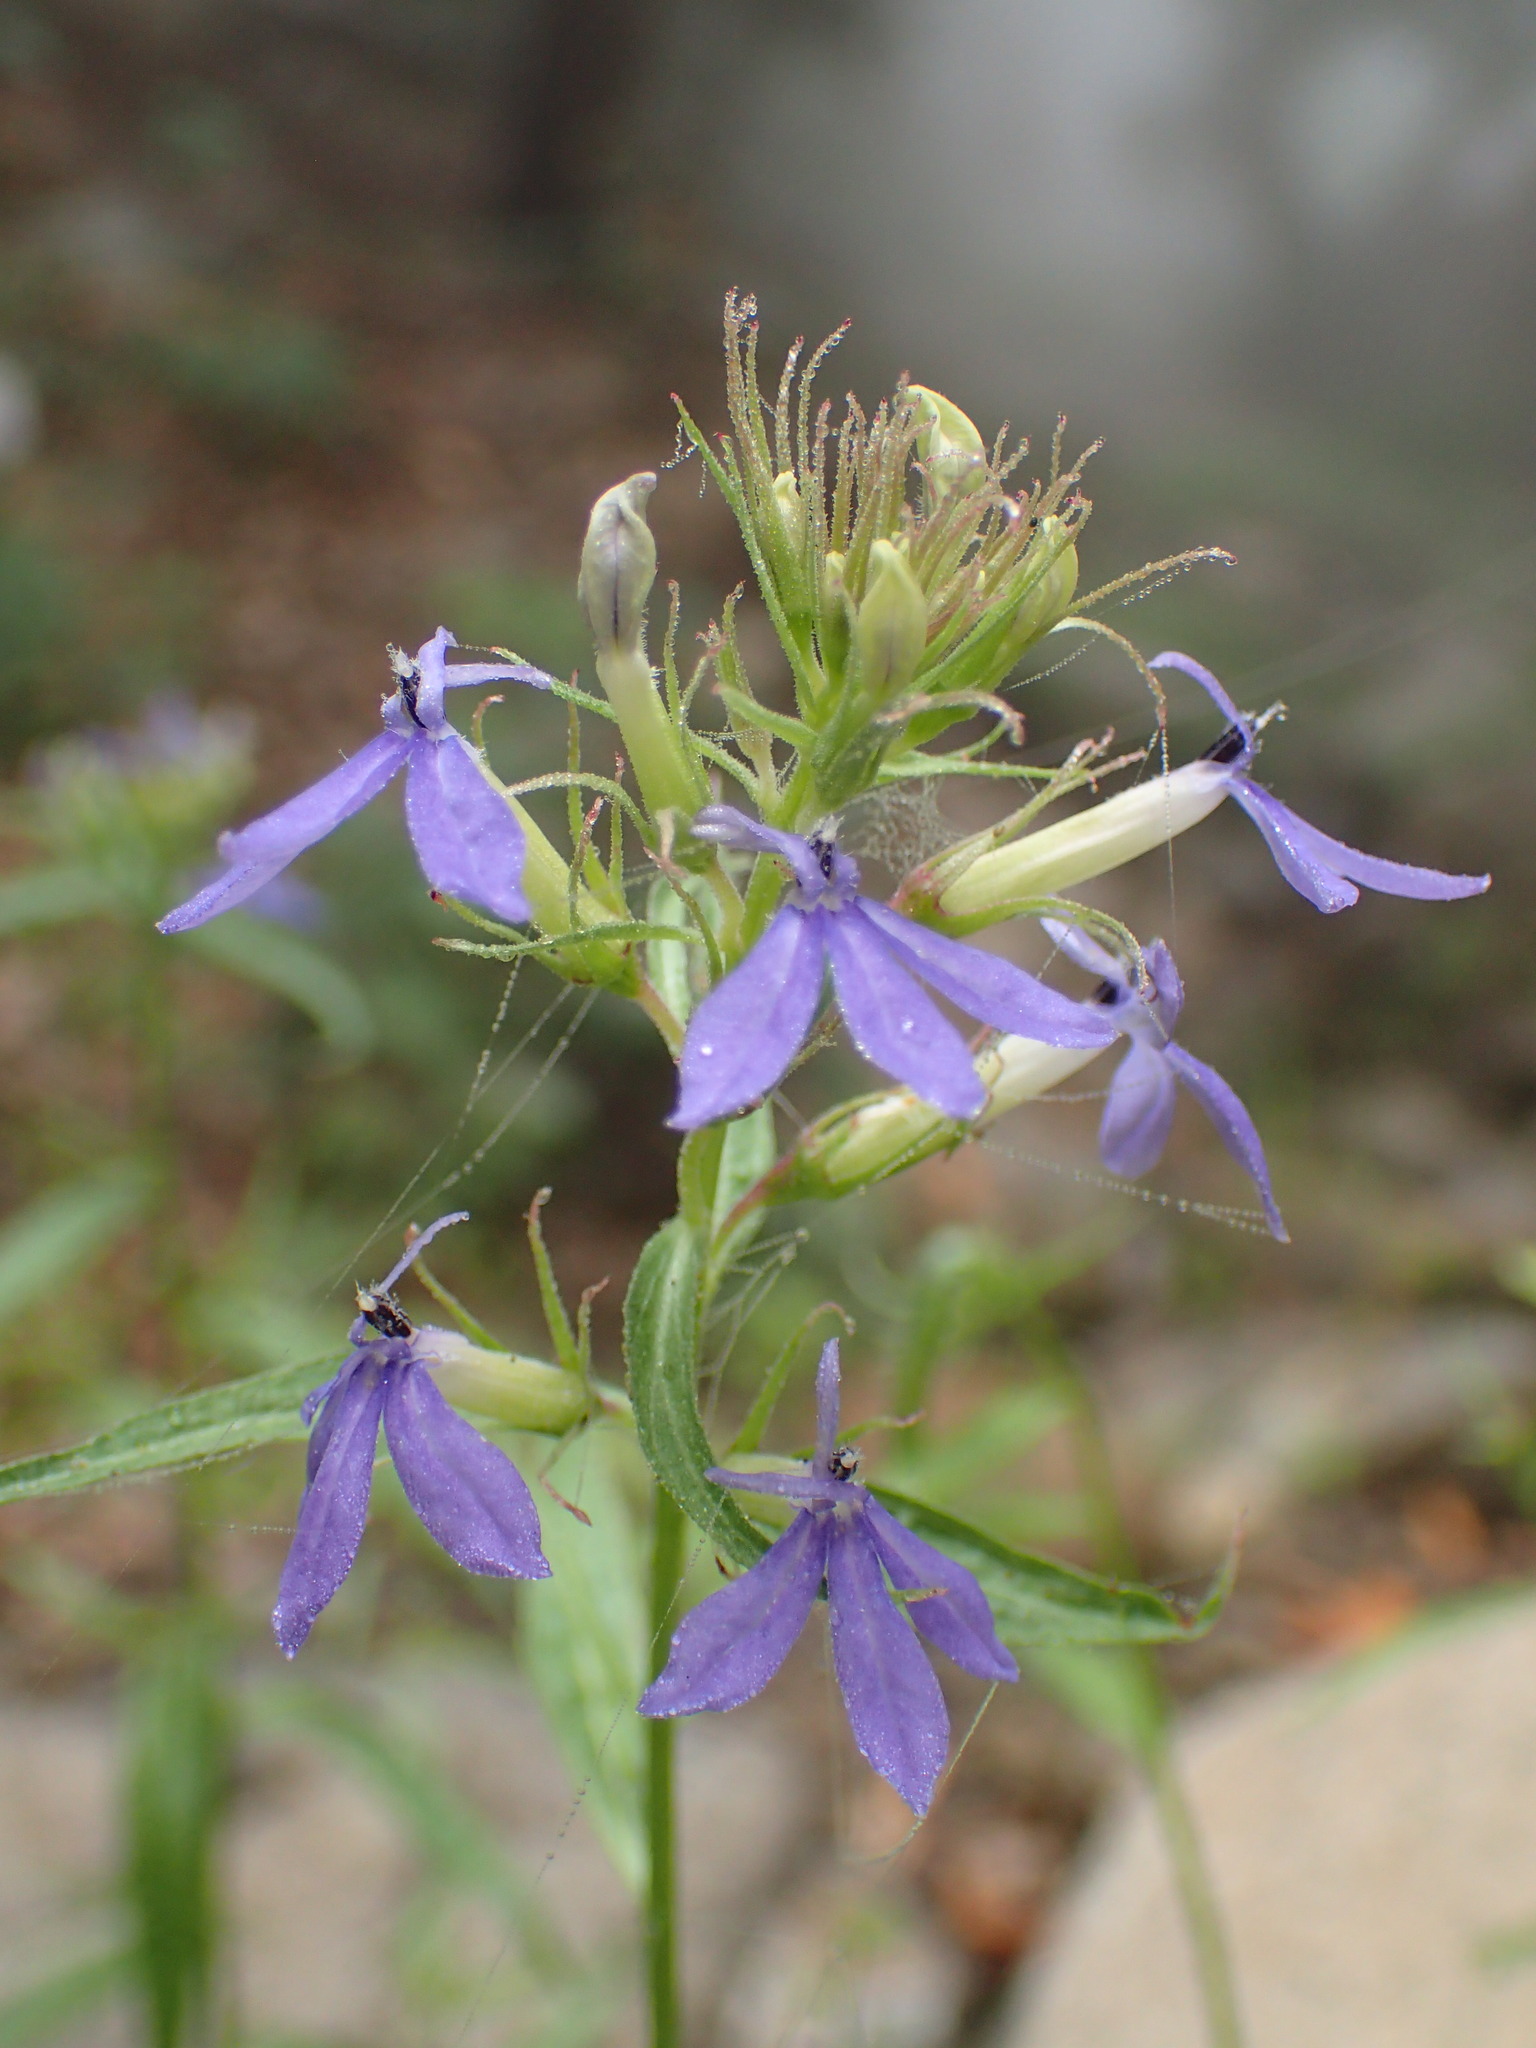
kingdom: Plantae
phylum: Tracheophyta
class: Magnoliopsida
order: Asterales
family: Campanulaceae
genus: Palmerella
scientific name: Palmerella debilis
